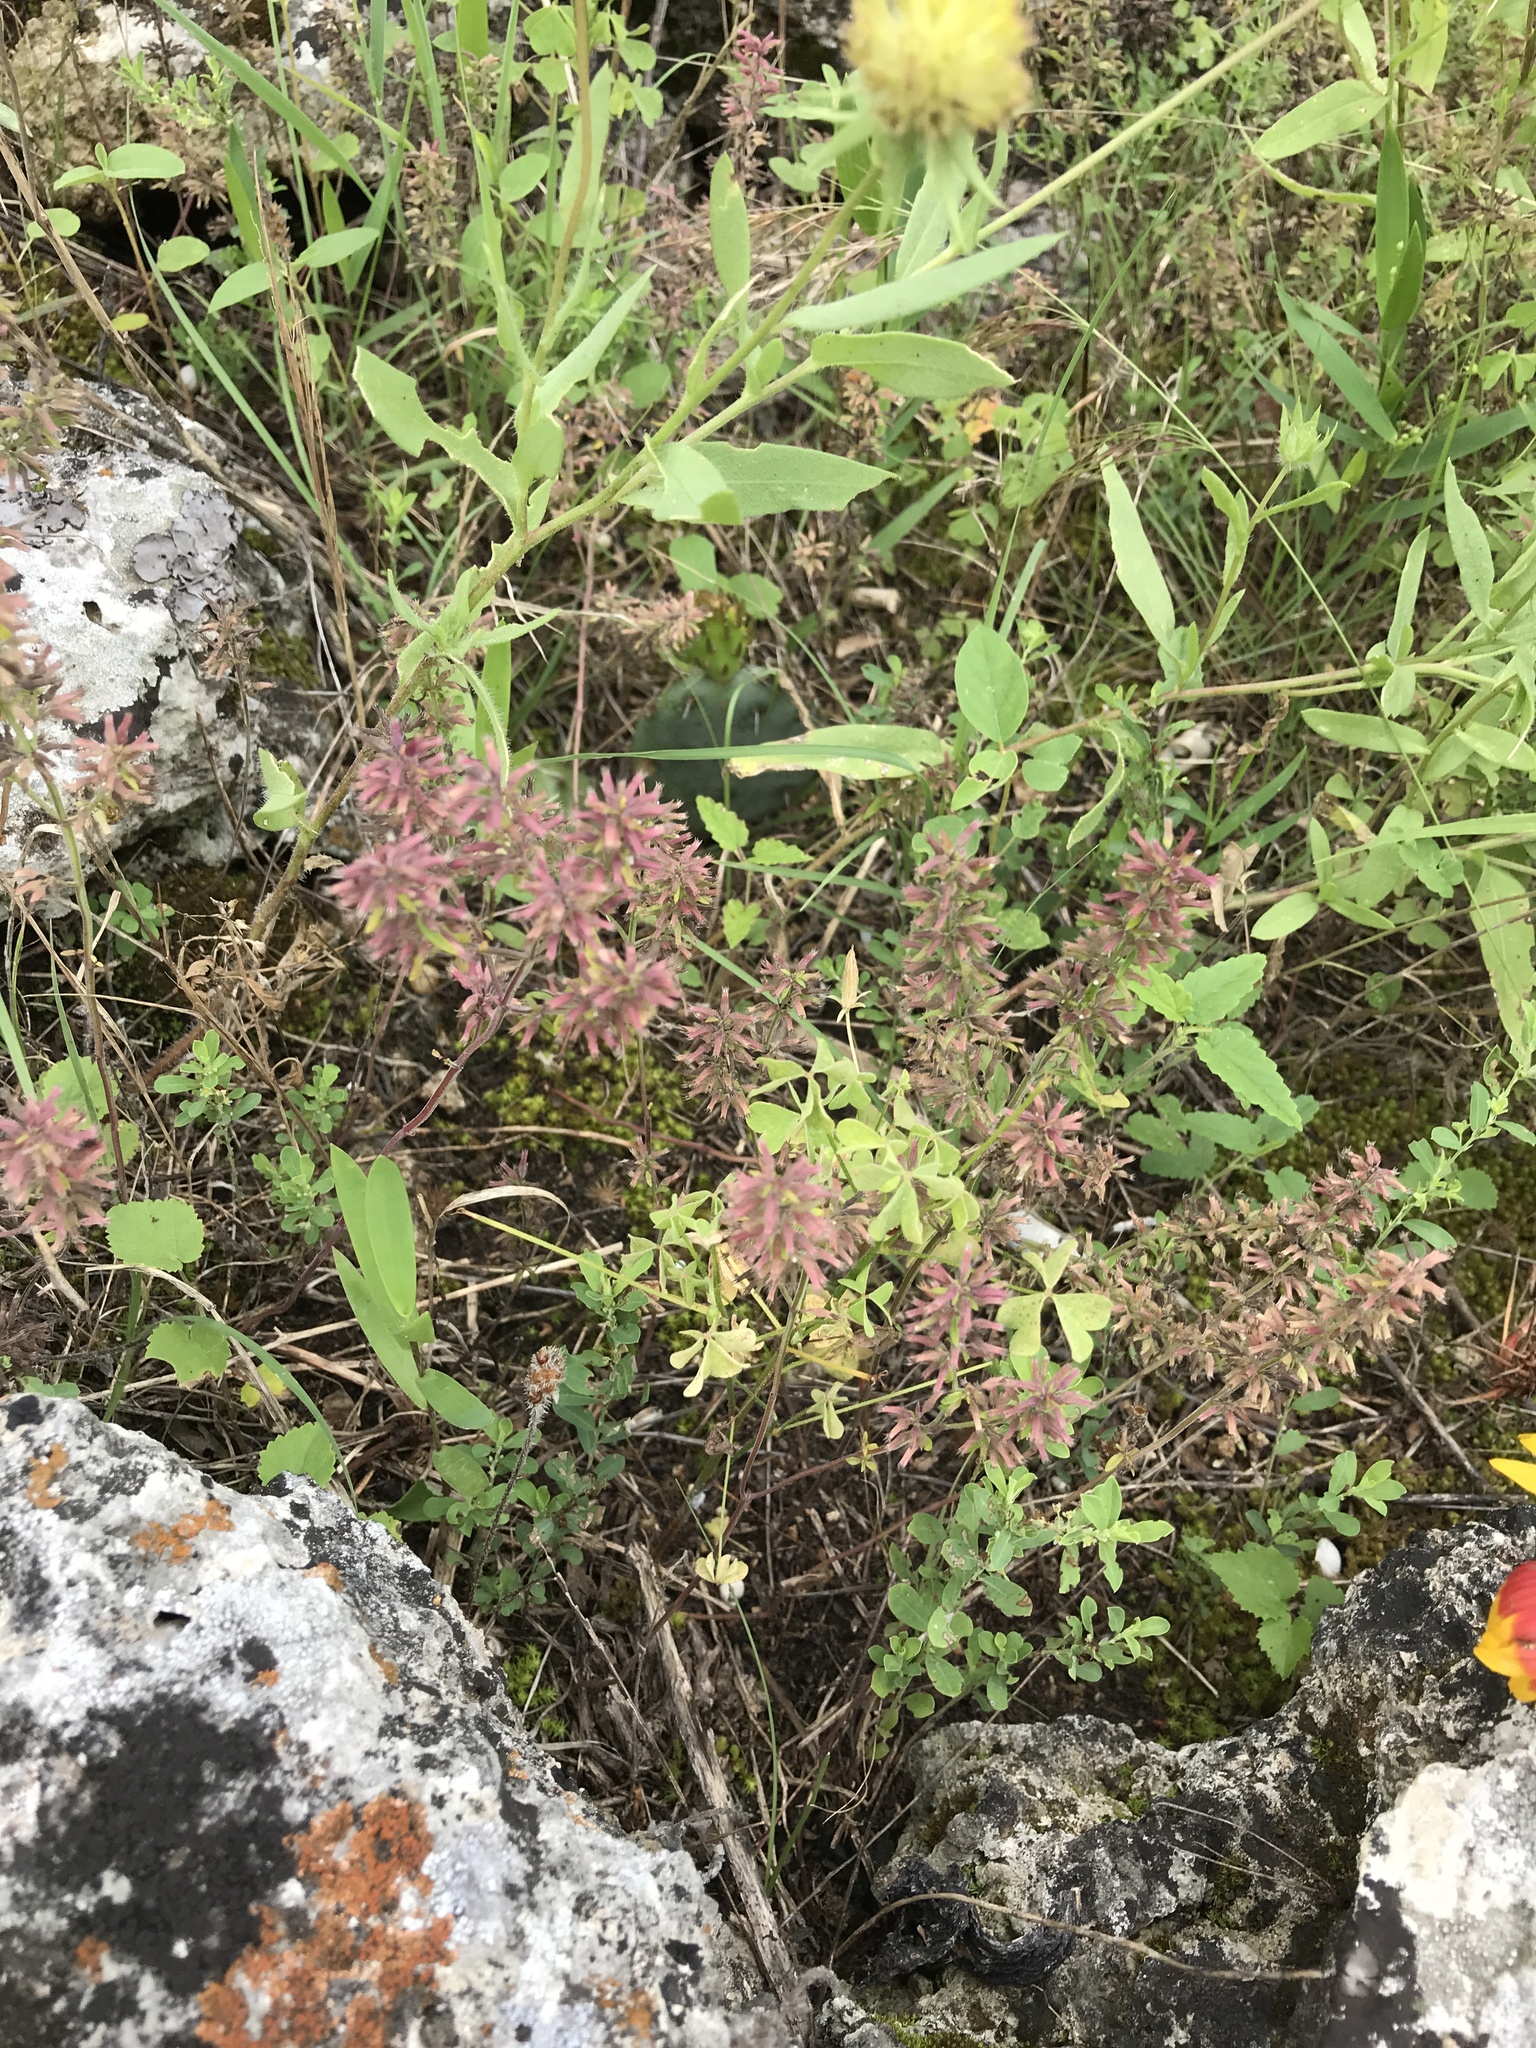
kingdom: Plantae
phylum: Tracheophyta
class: Magnoliopsida
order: Lamiales
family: Lamiaceae
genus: Hedeoma
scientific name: Hedeoma acinoides
